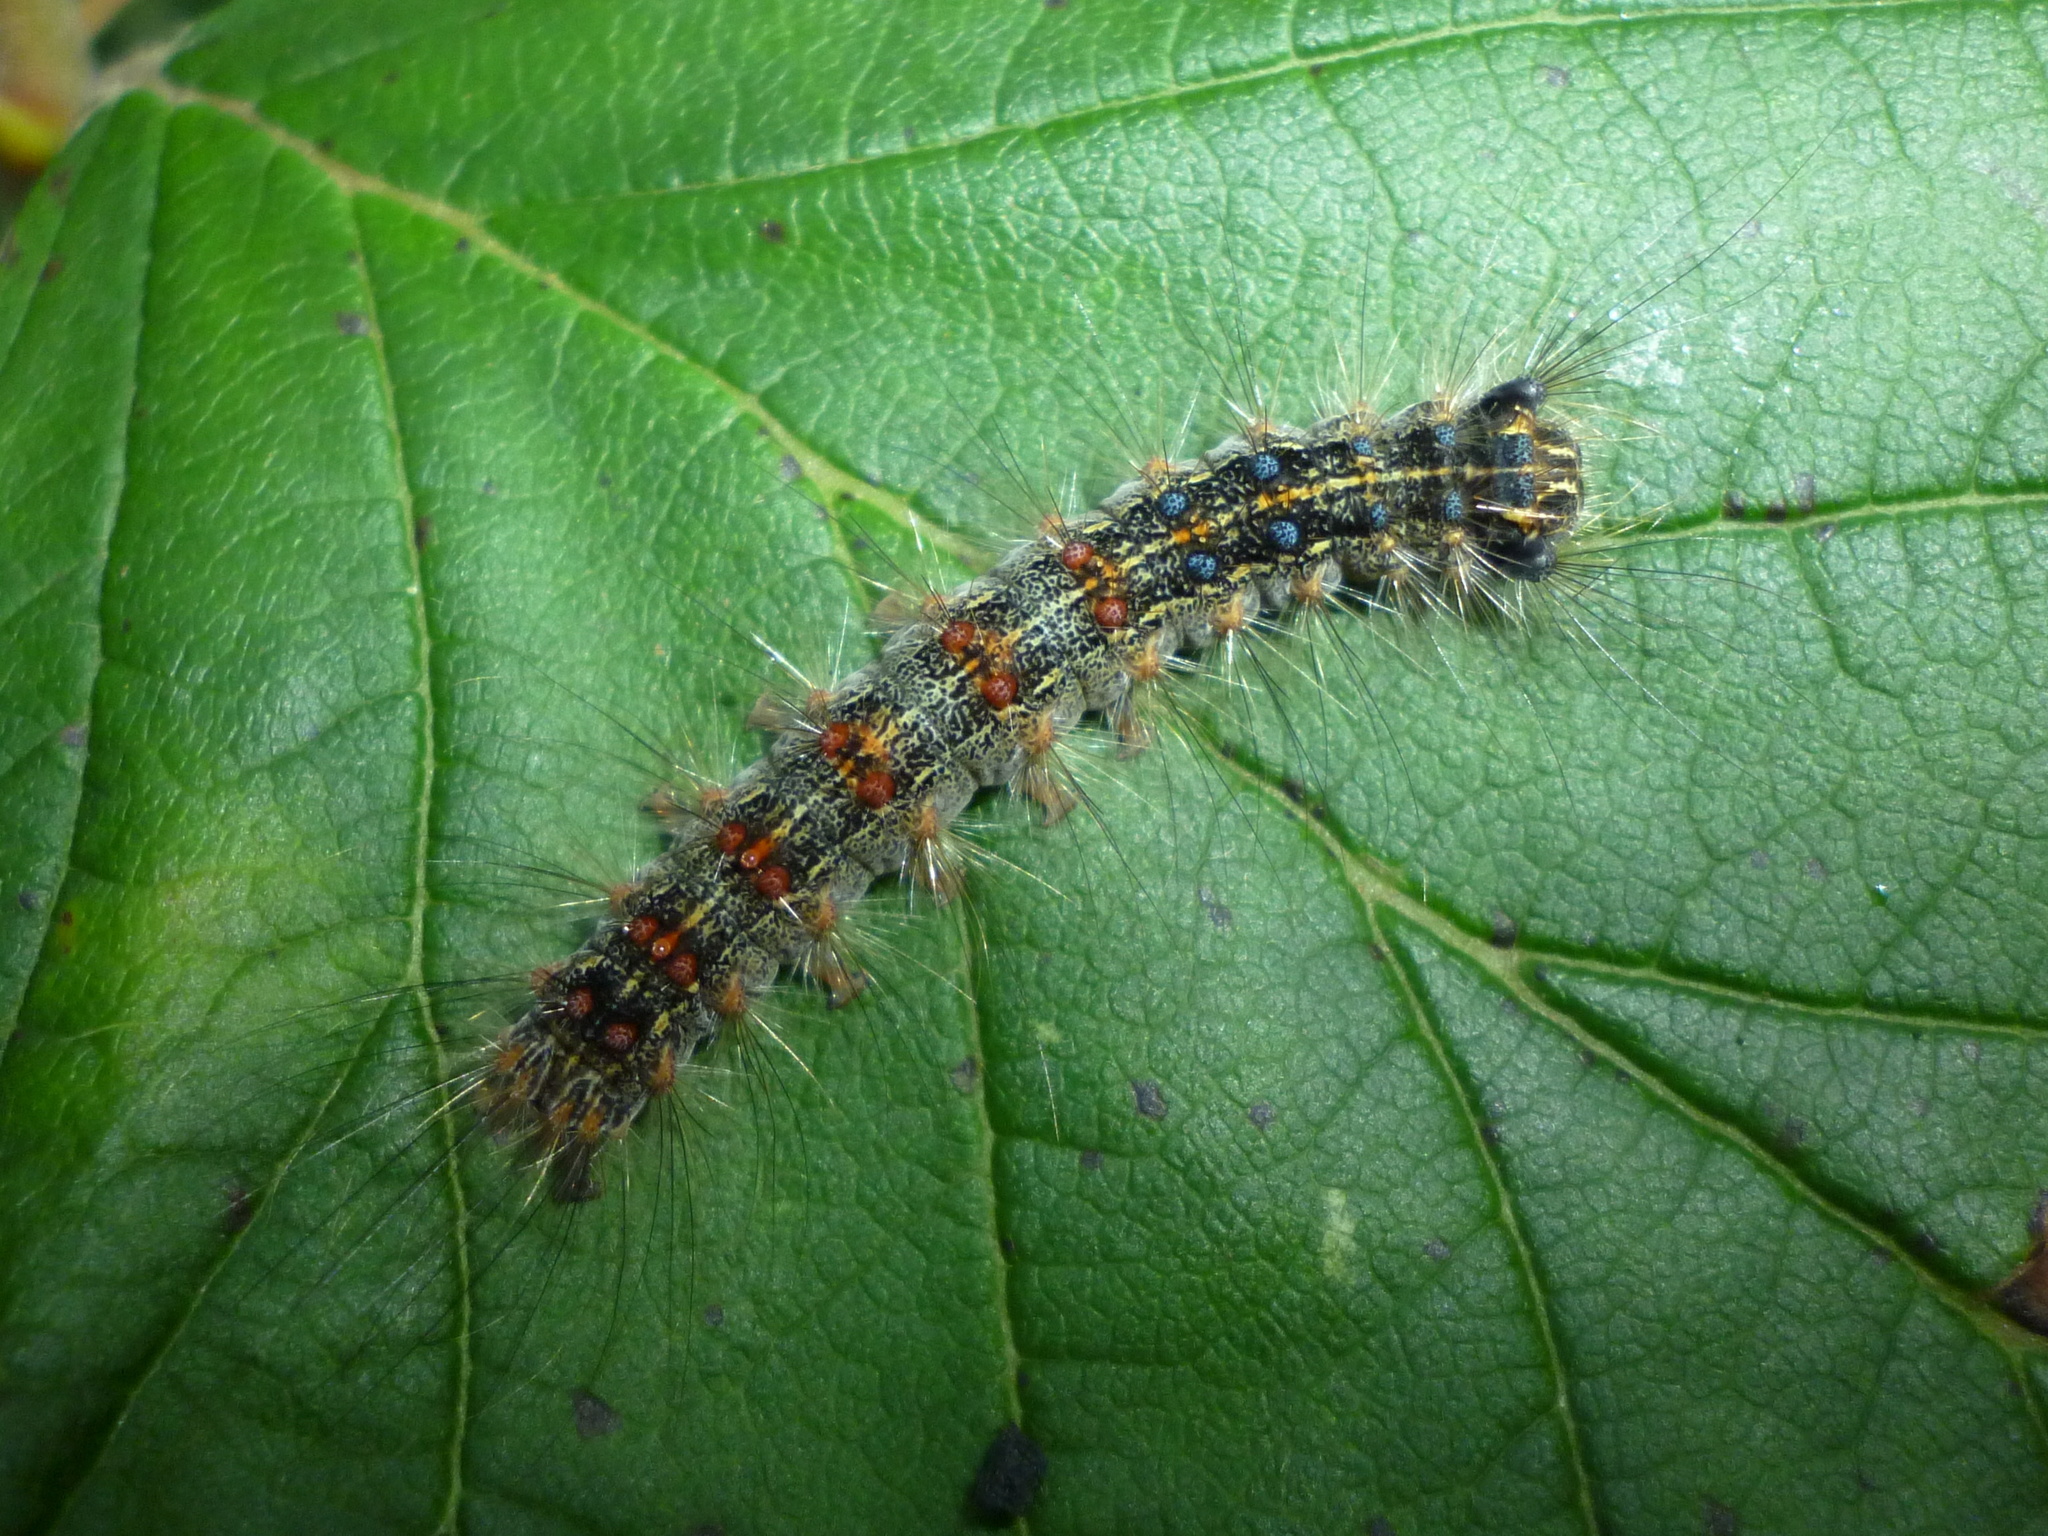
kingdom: Animalia
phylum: Arthropoda
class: Insecta
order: Lepidoptera
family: Erebidae
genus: Lymantria
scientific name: Lymantria dispar
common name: Gypsy moth
